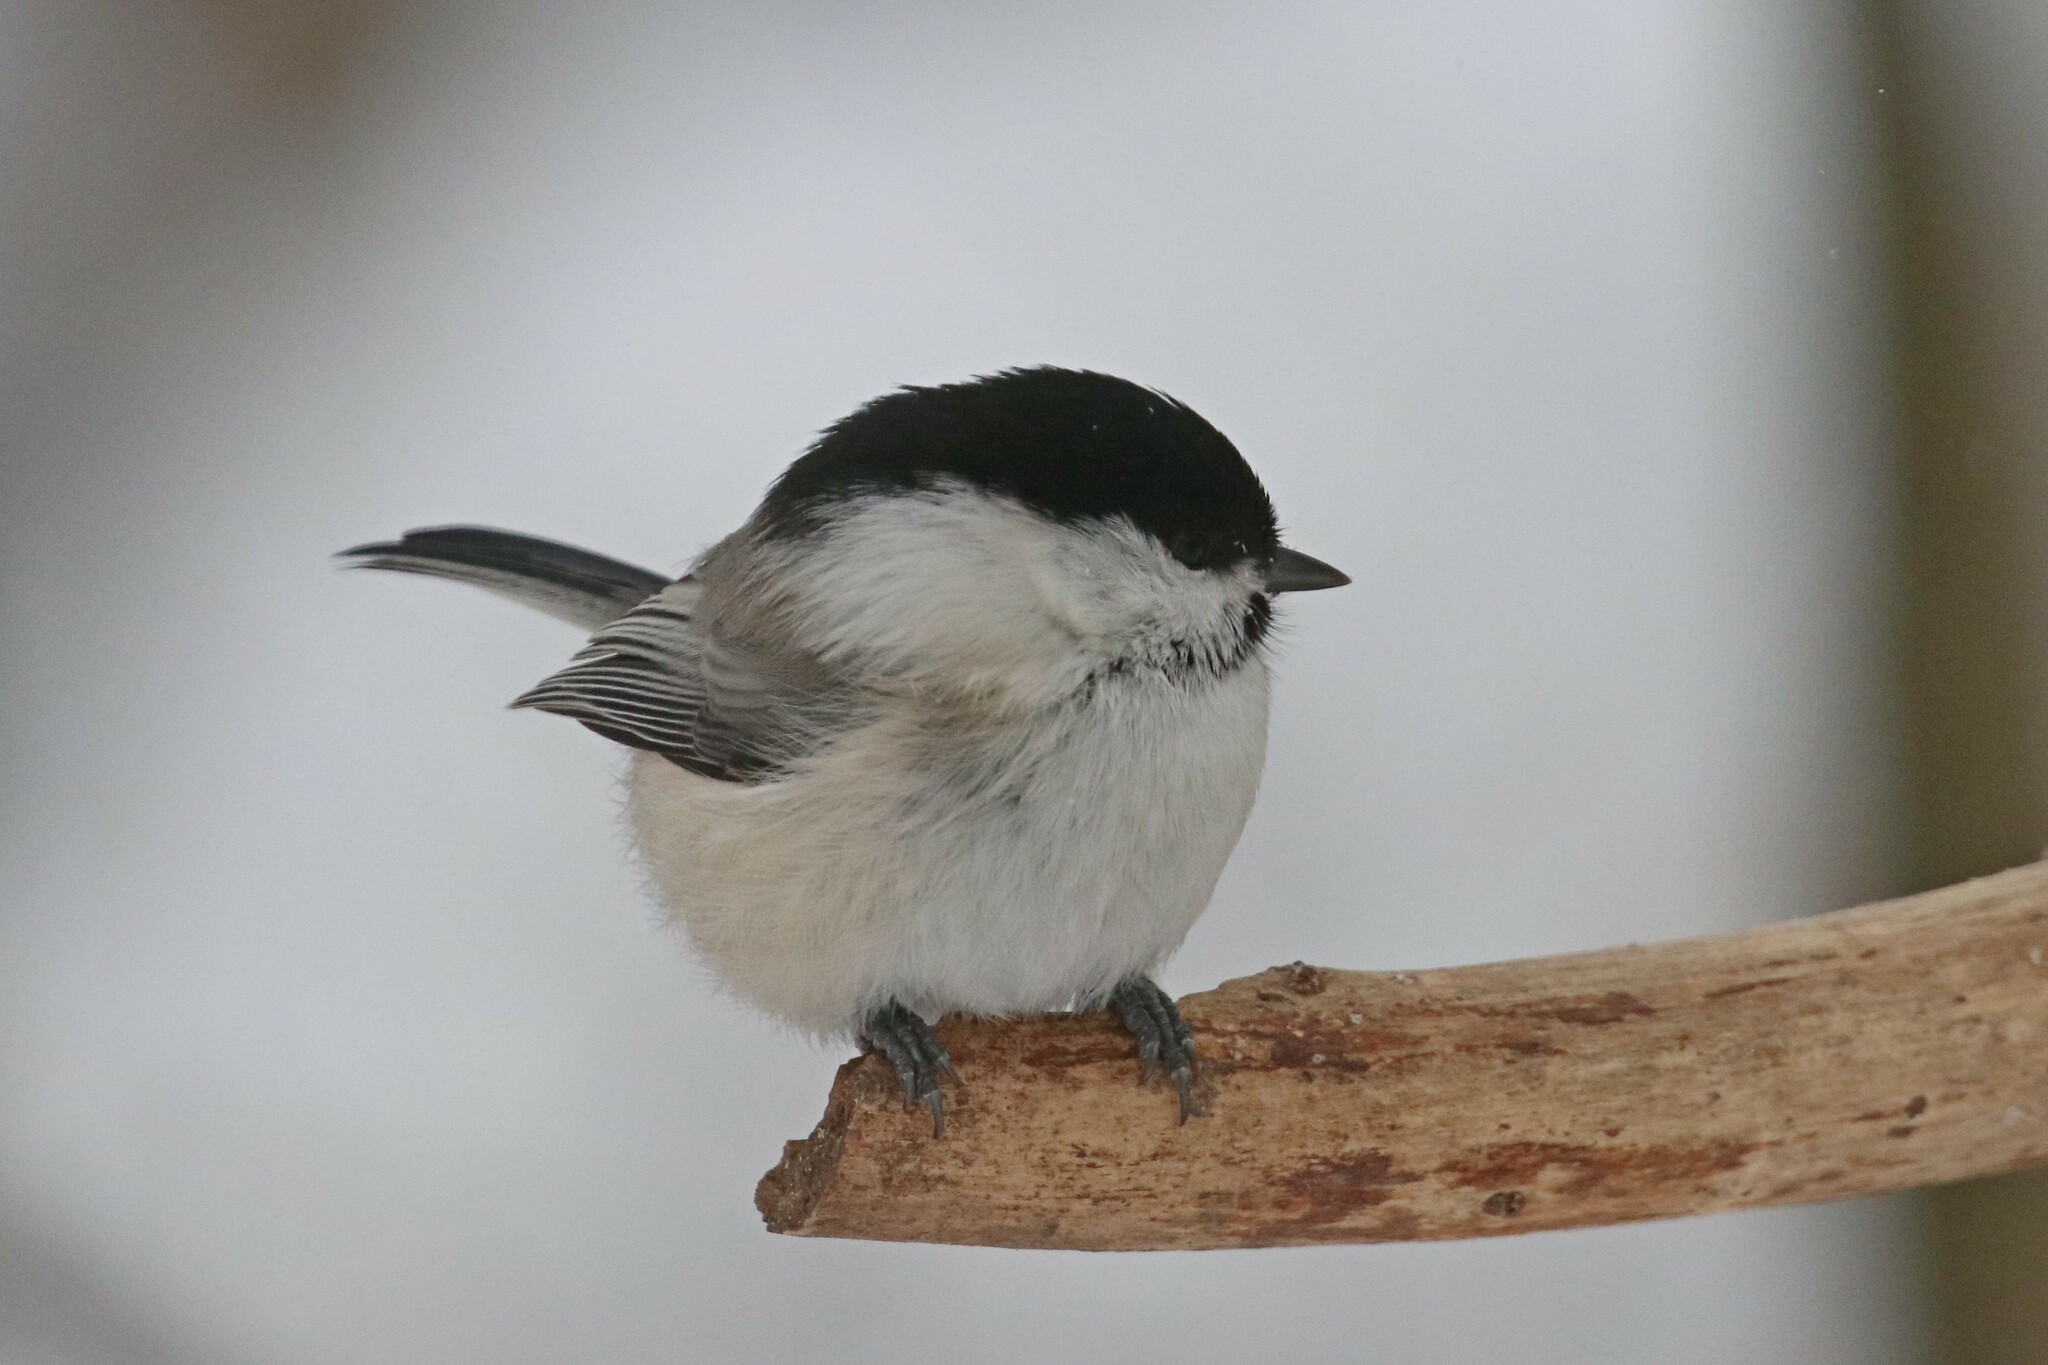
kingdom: Animalia
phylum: Chordata
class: Aves
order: Passeriformes
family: Paridae
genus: Poecile
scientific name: Poecile montanus
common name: Willow tit
